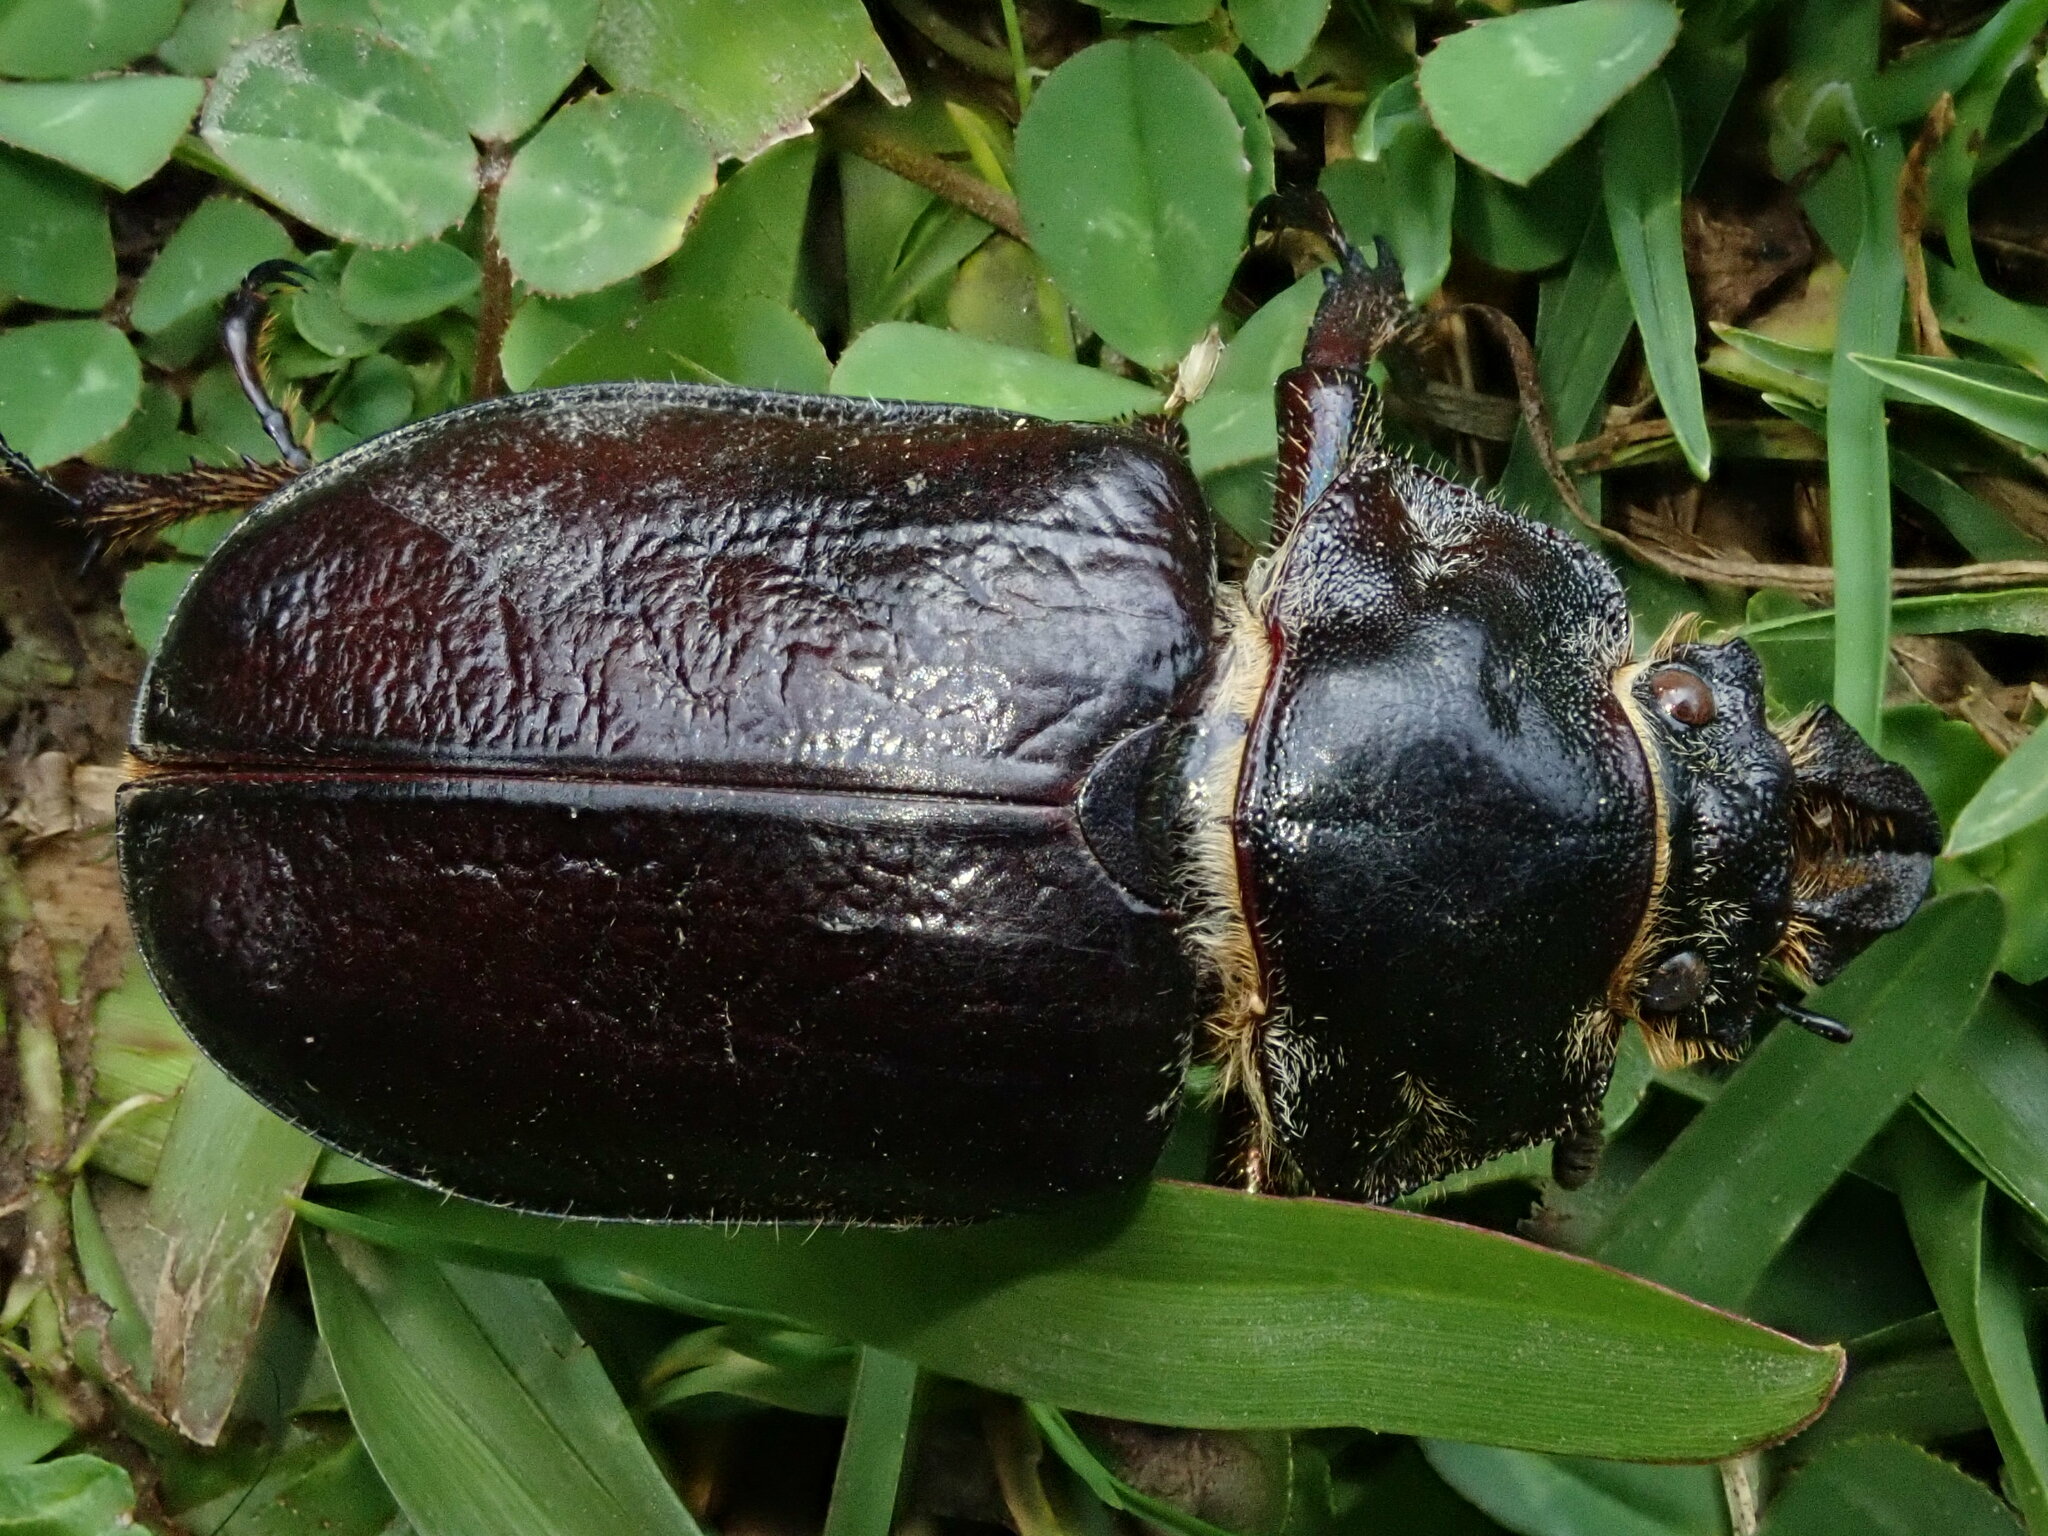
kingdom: Animalia
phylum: Arthropoda
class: Insecta
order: Coleoptera
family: Lucanidae
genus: Sphaenognathus
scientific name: Sphaenognathus garleppi
